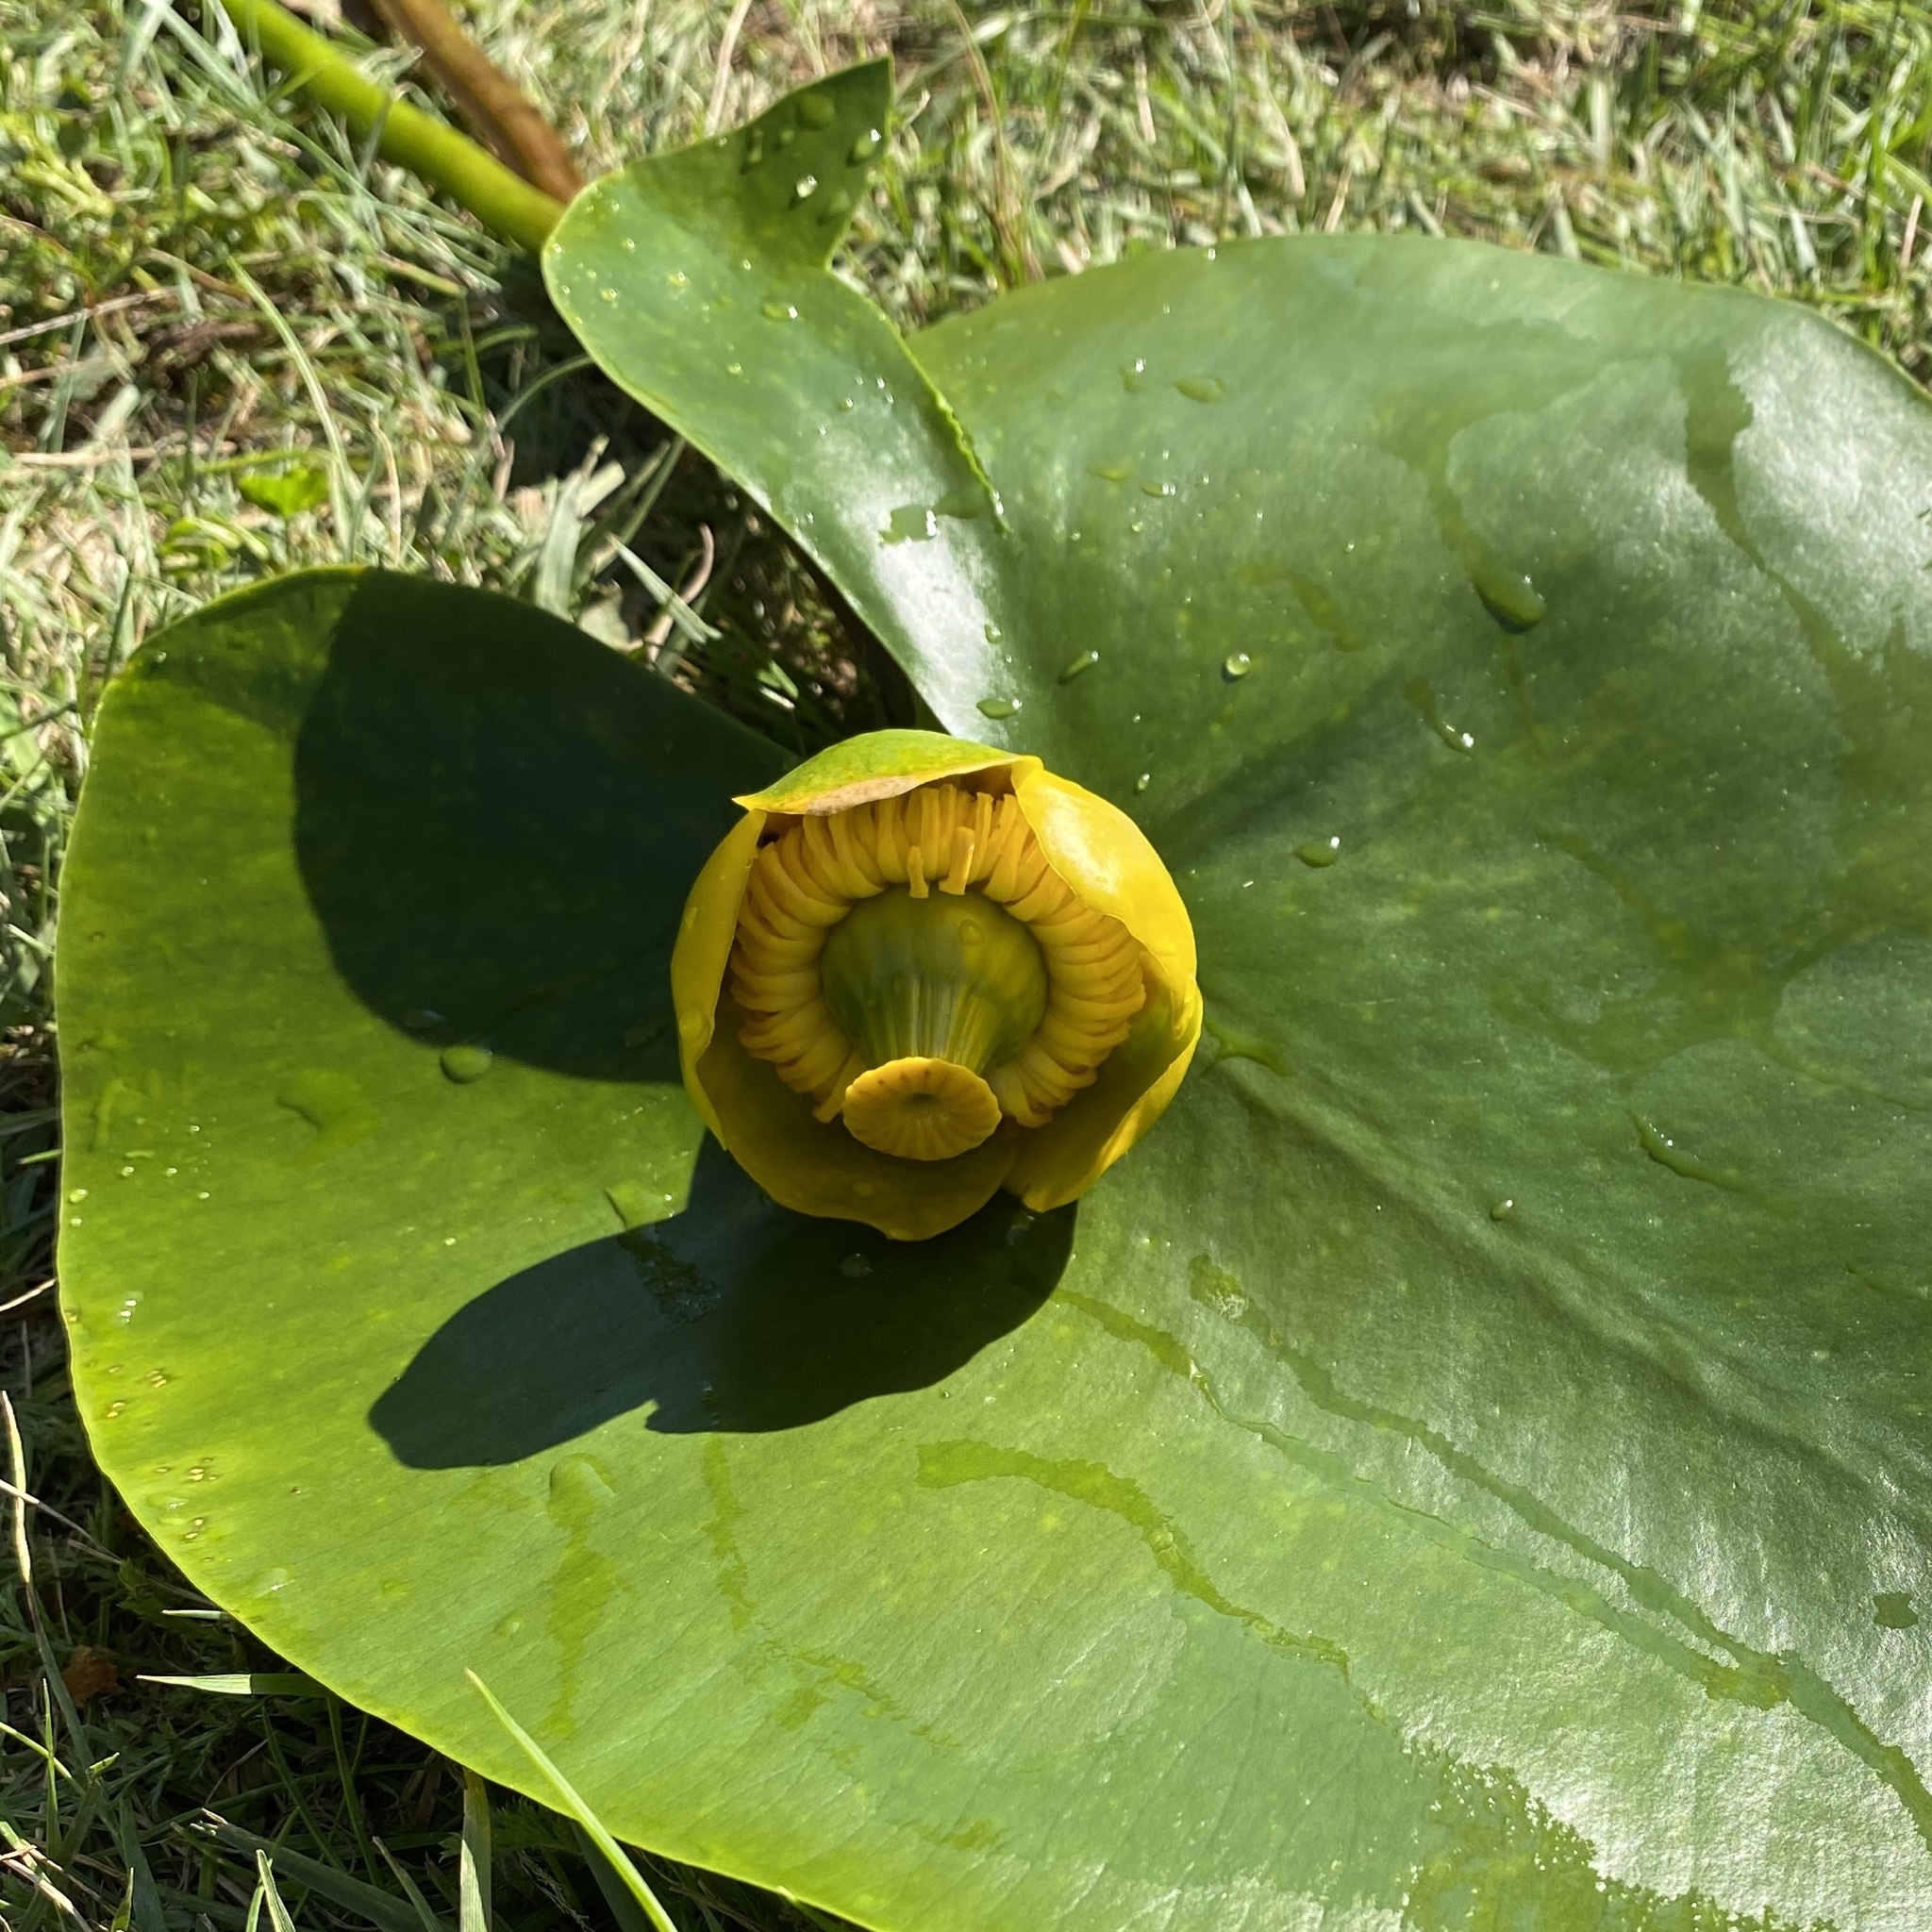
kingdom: Plantae
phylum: Tracheophyta
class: Magnoliopsida
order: Nymphaeales
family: Nymphaeaceae
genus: Nuphar
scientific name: Nuphar lutea
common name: Yellow water-lily
